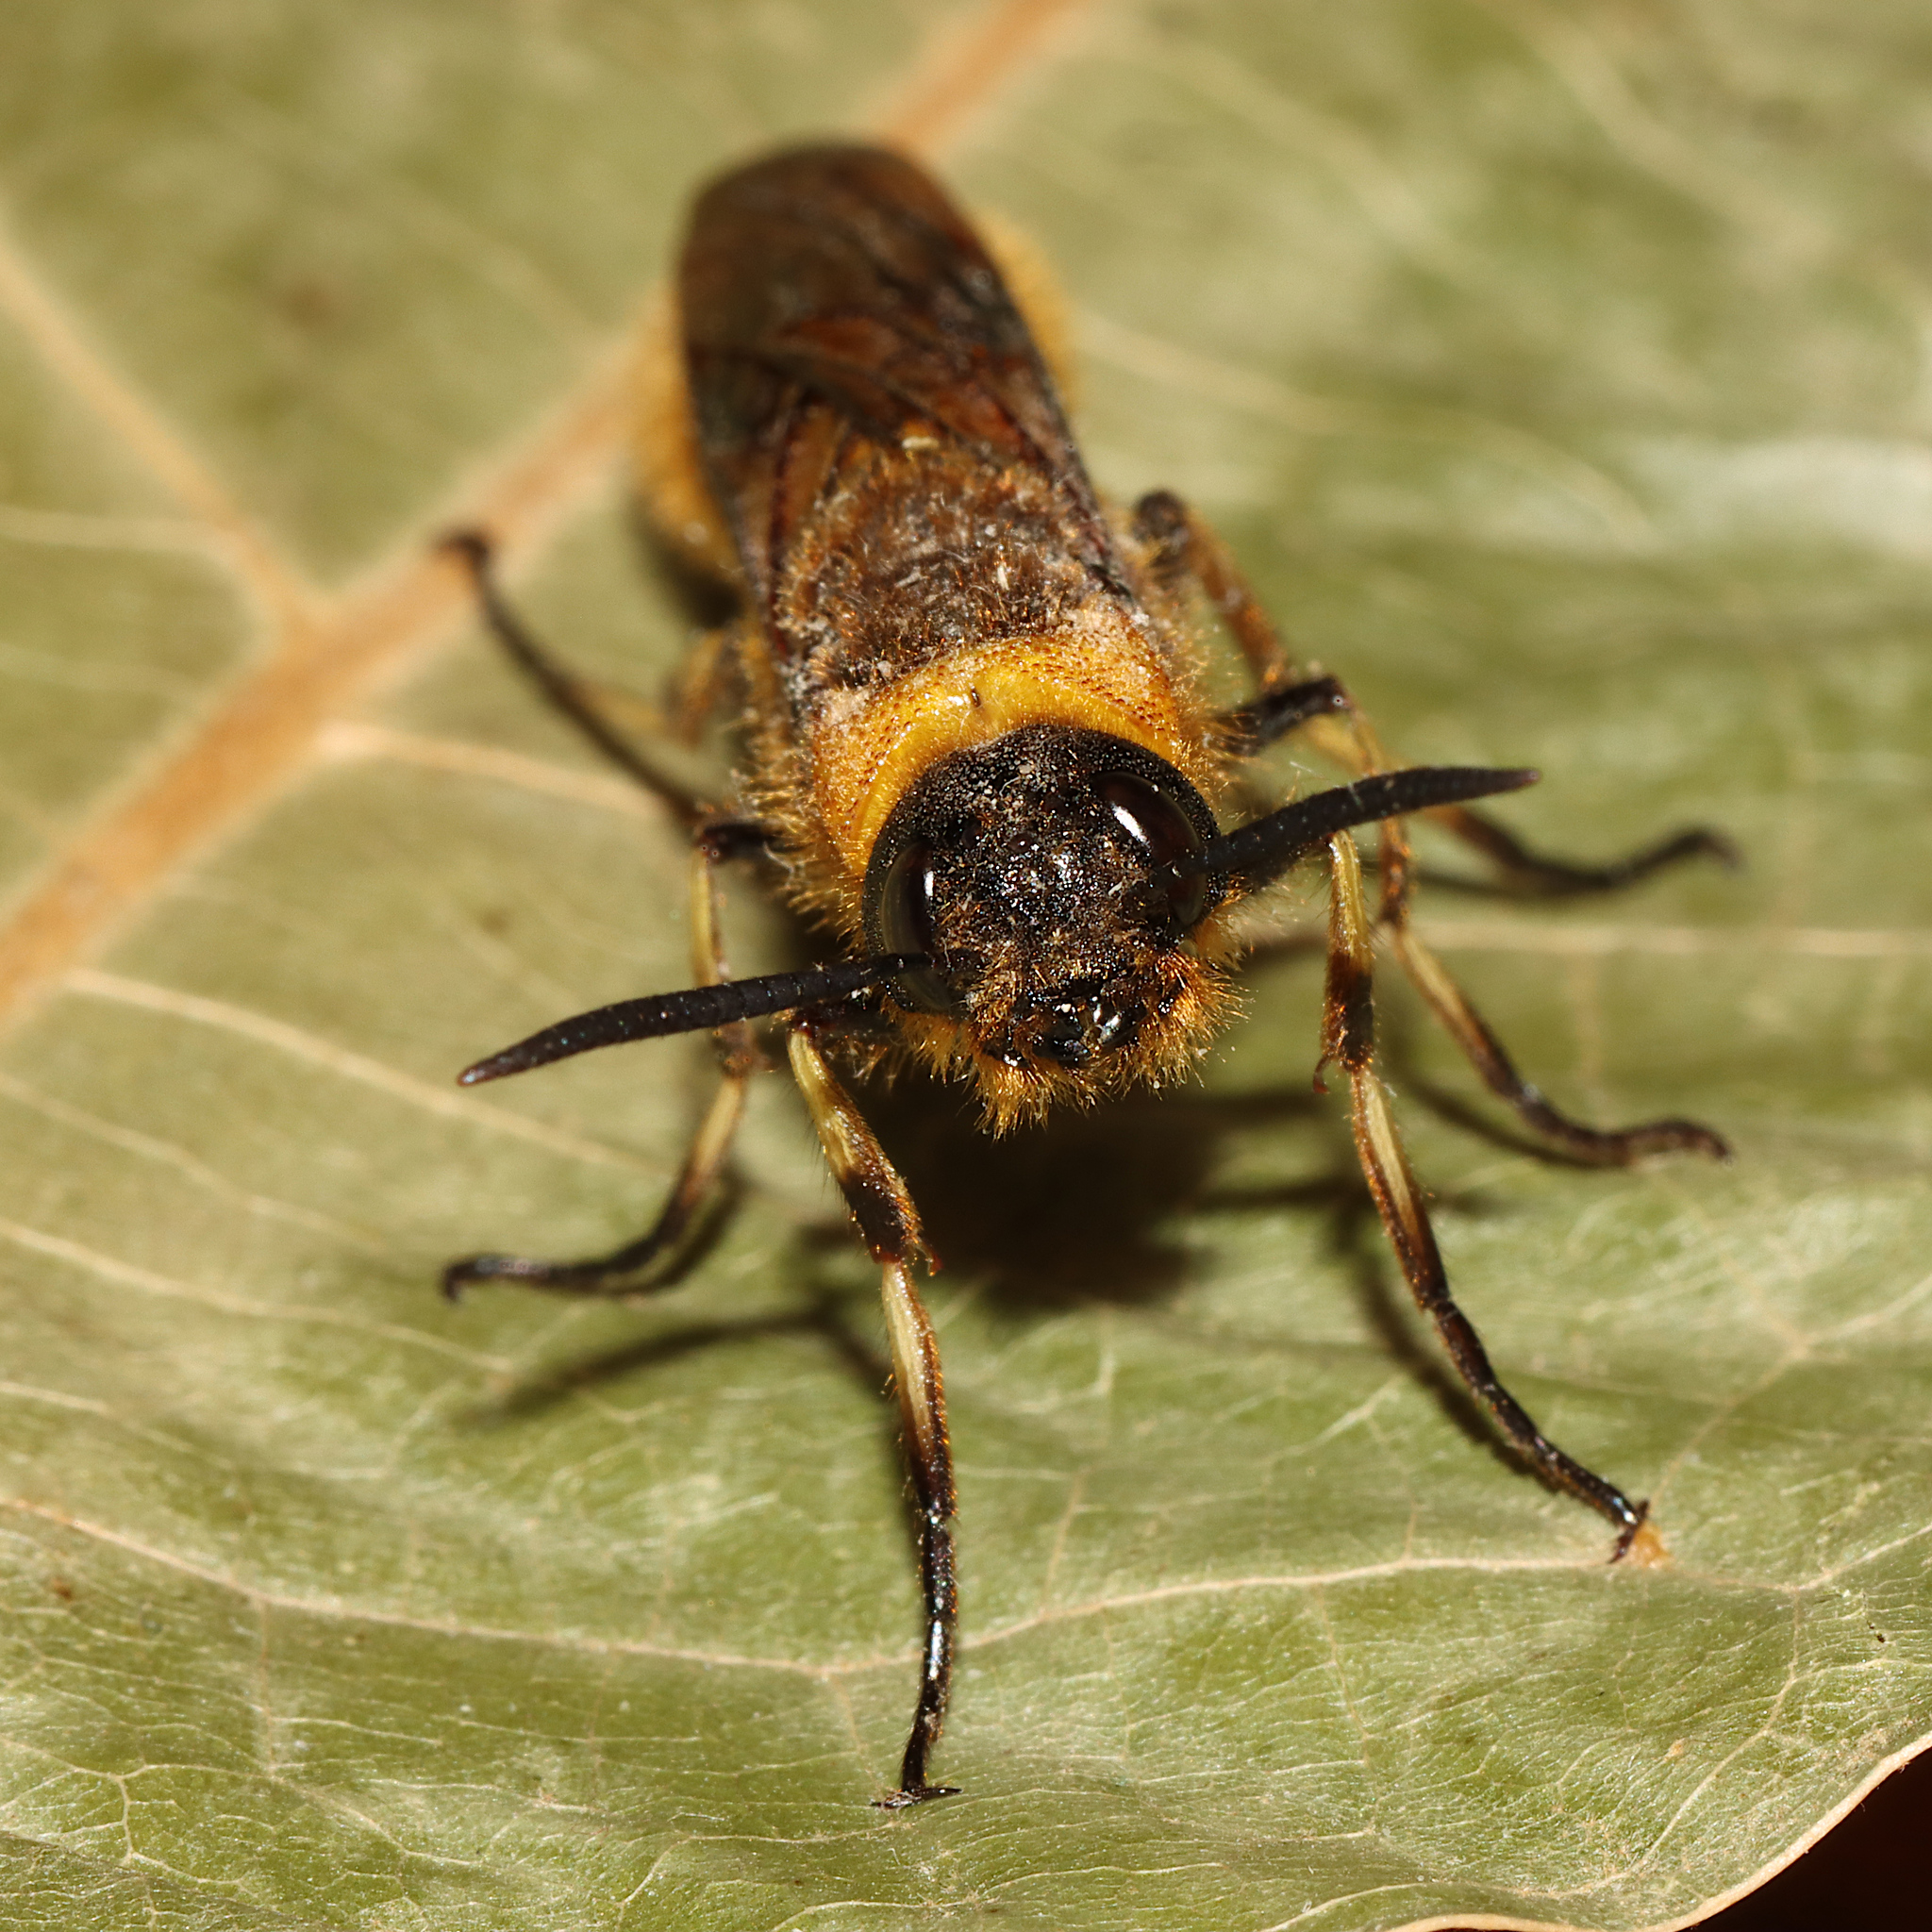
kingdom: Animalia
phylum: Arthropoda
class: Insecta
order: Hymenoptera
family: Siricidae
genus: Eriotremex
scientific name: Eriotremex formosanus
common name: Asian horntail
